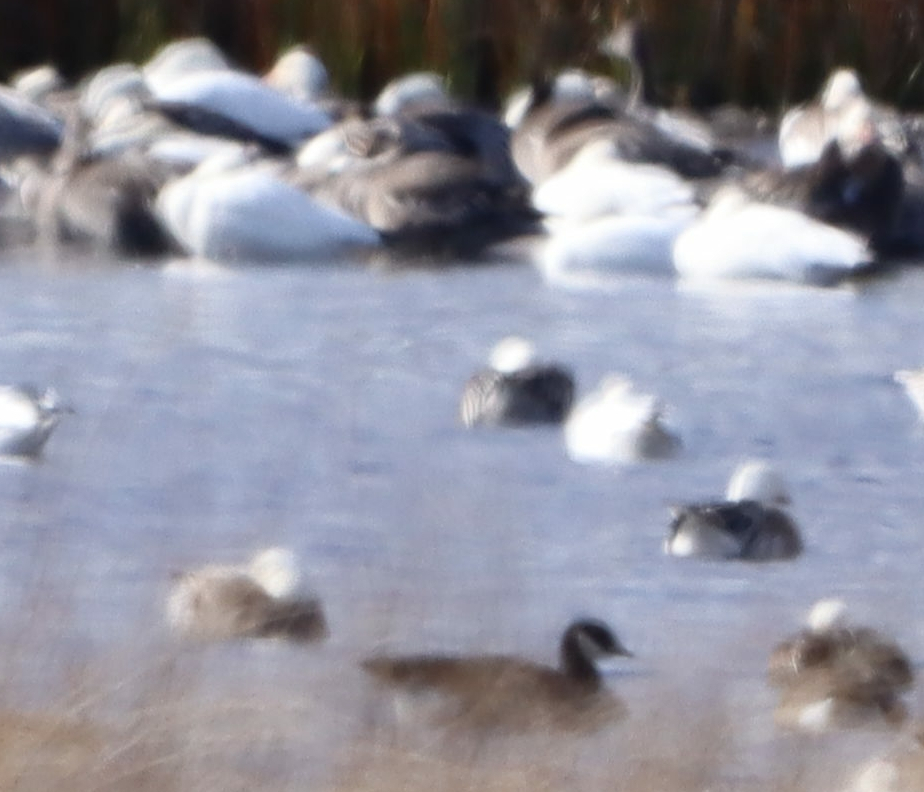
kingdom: Animalia
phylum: Chordata
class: Aves
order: Anseriformes
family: Anatidae
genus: Branta
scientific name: Branta hutchinsii
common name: Cackling goose
